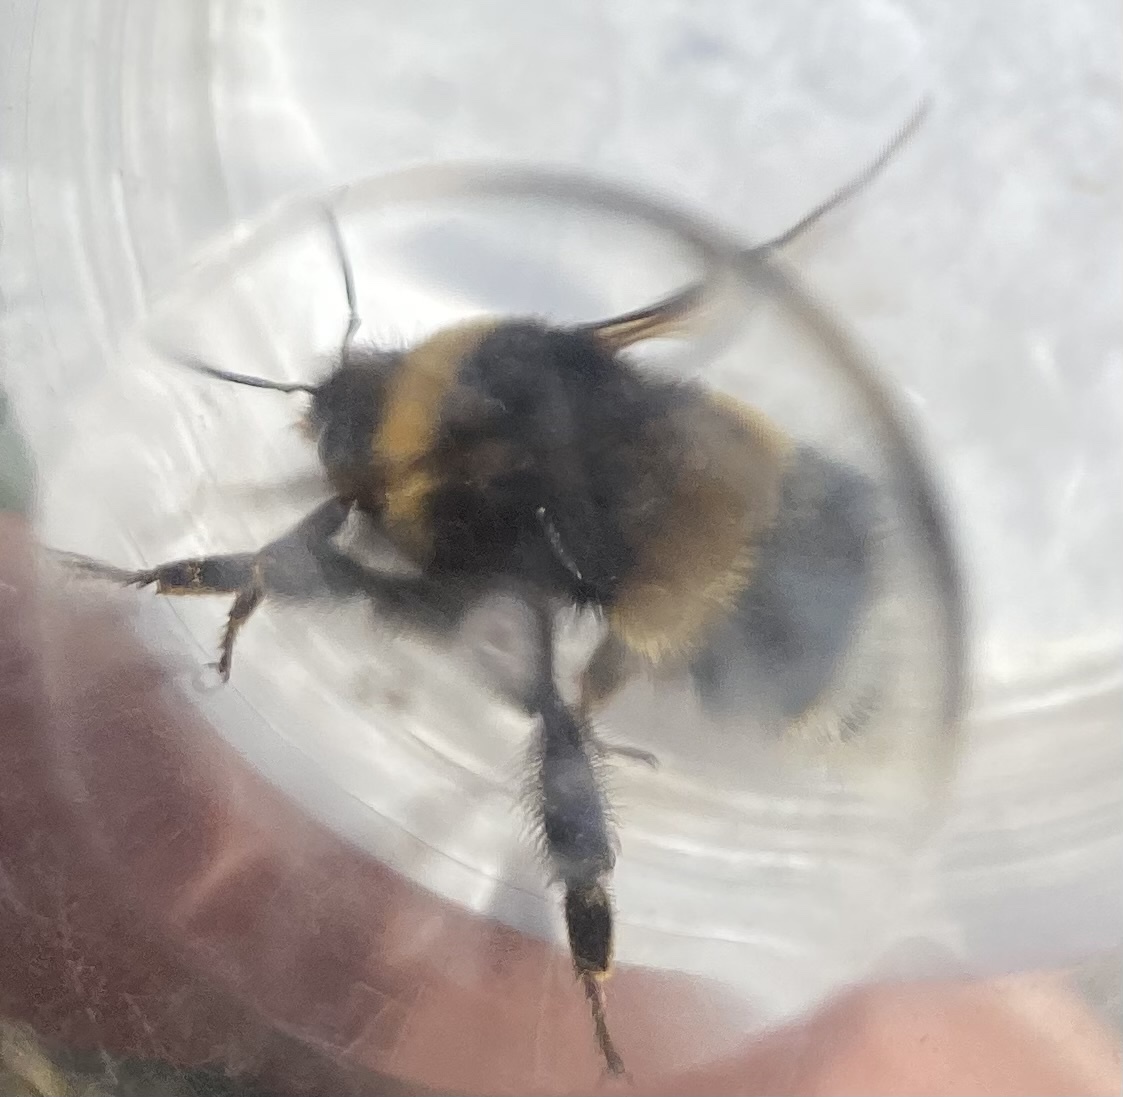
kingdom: Animalia
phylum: Arthropoda
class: Insecta
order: Hymenoptera
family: Apidae
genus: Bombus
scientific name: Bombus
